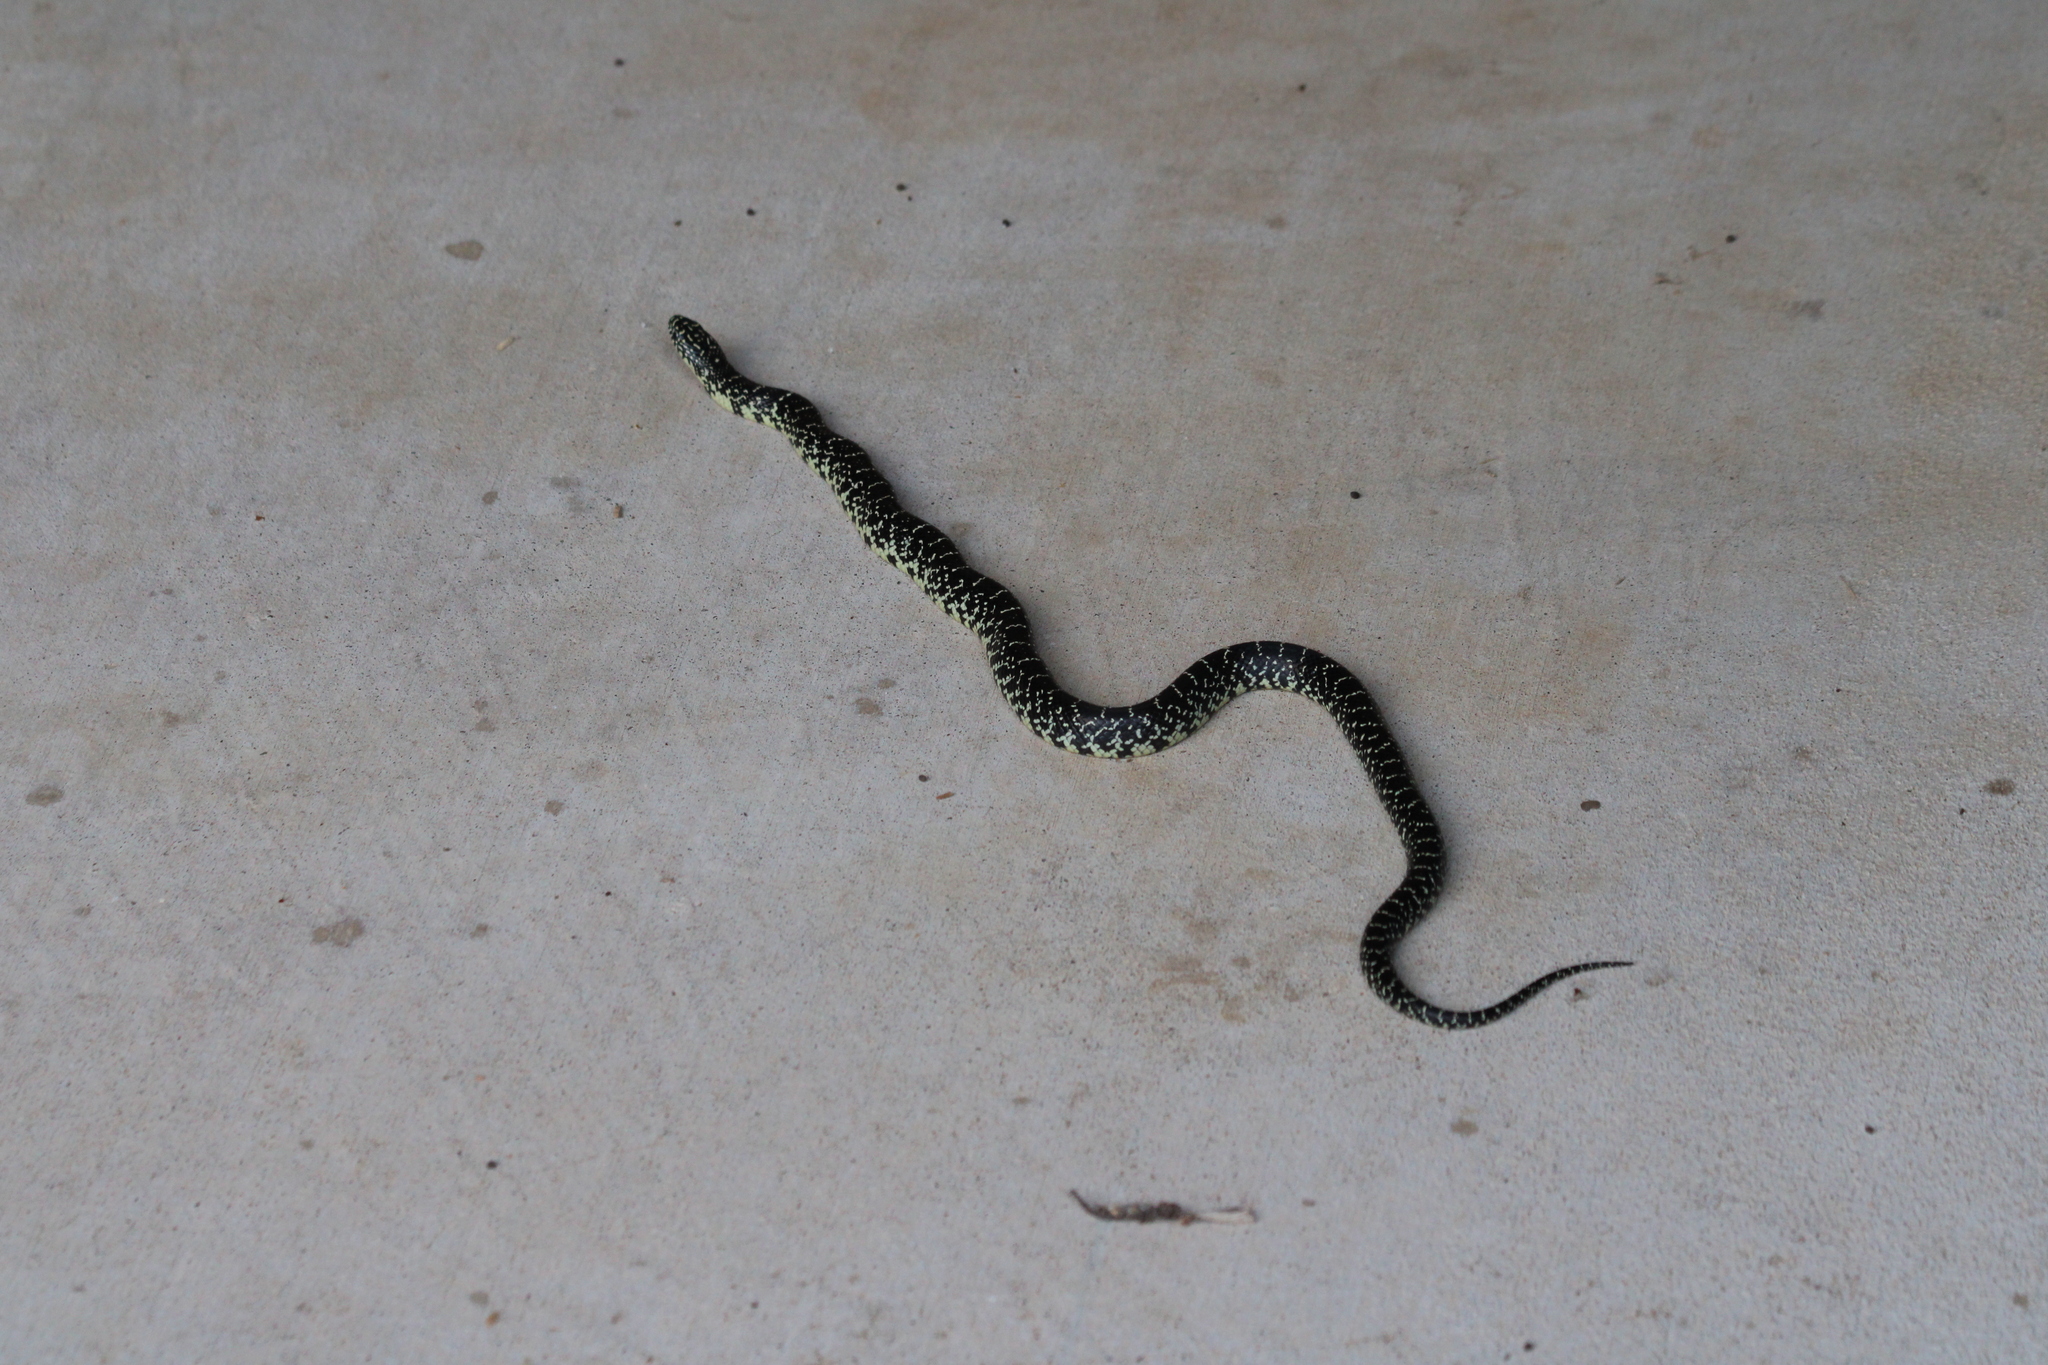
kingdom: Animalia
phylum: Chordata
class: Squamata
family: Colubridae
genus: Lampropeltis
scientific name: Lampropeltis holbrooki
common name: Speckled kingsnake
